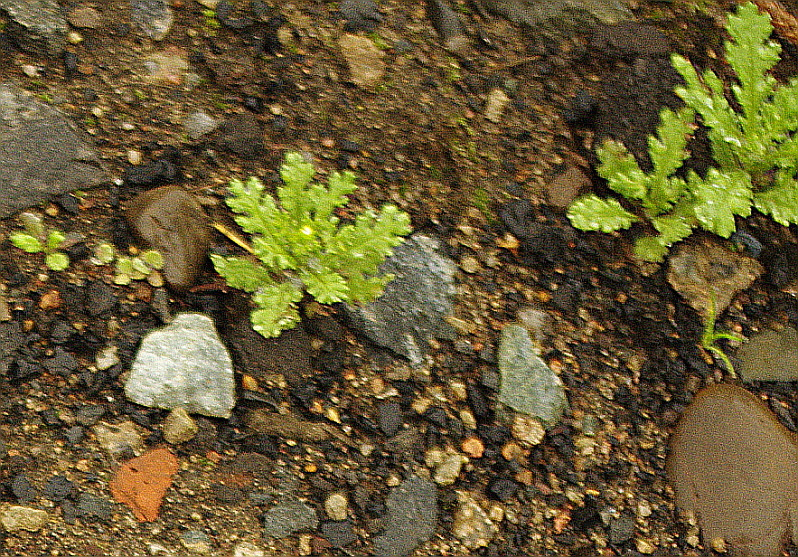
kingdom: Plantae
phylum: Tracheophyta
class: Magnoliopsida
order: Asterales
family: Asteraceae
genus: Senecio
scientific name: Senecio vulgaris
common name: Old-man-in-the-spring
